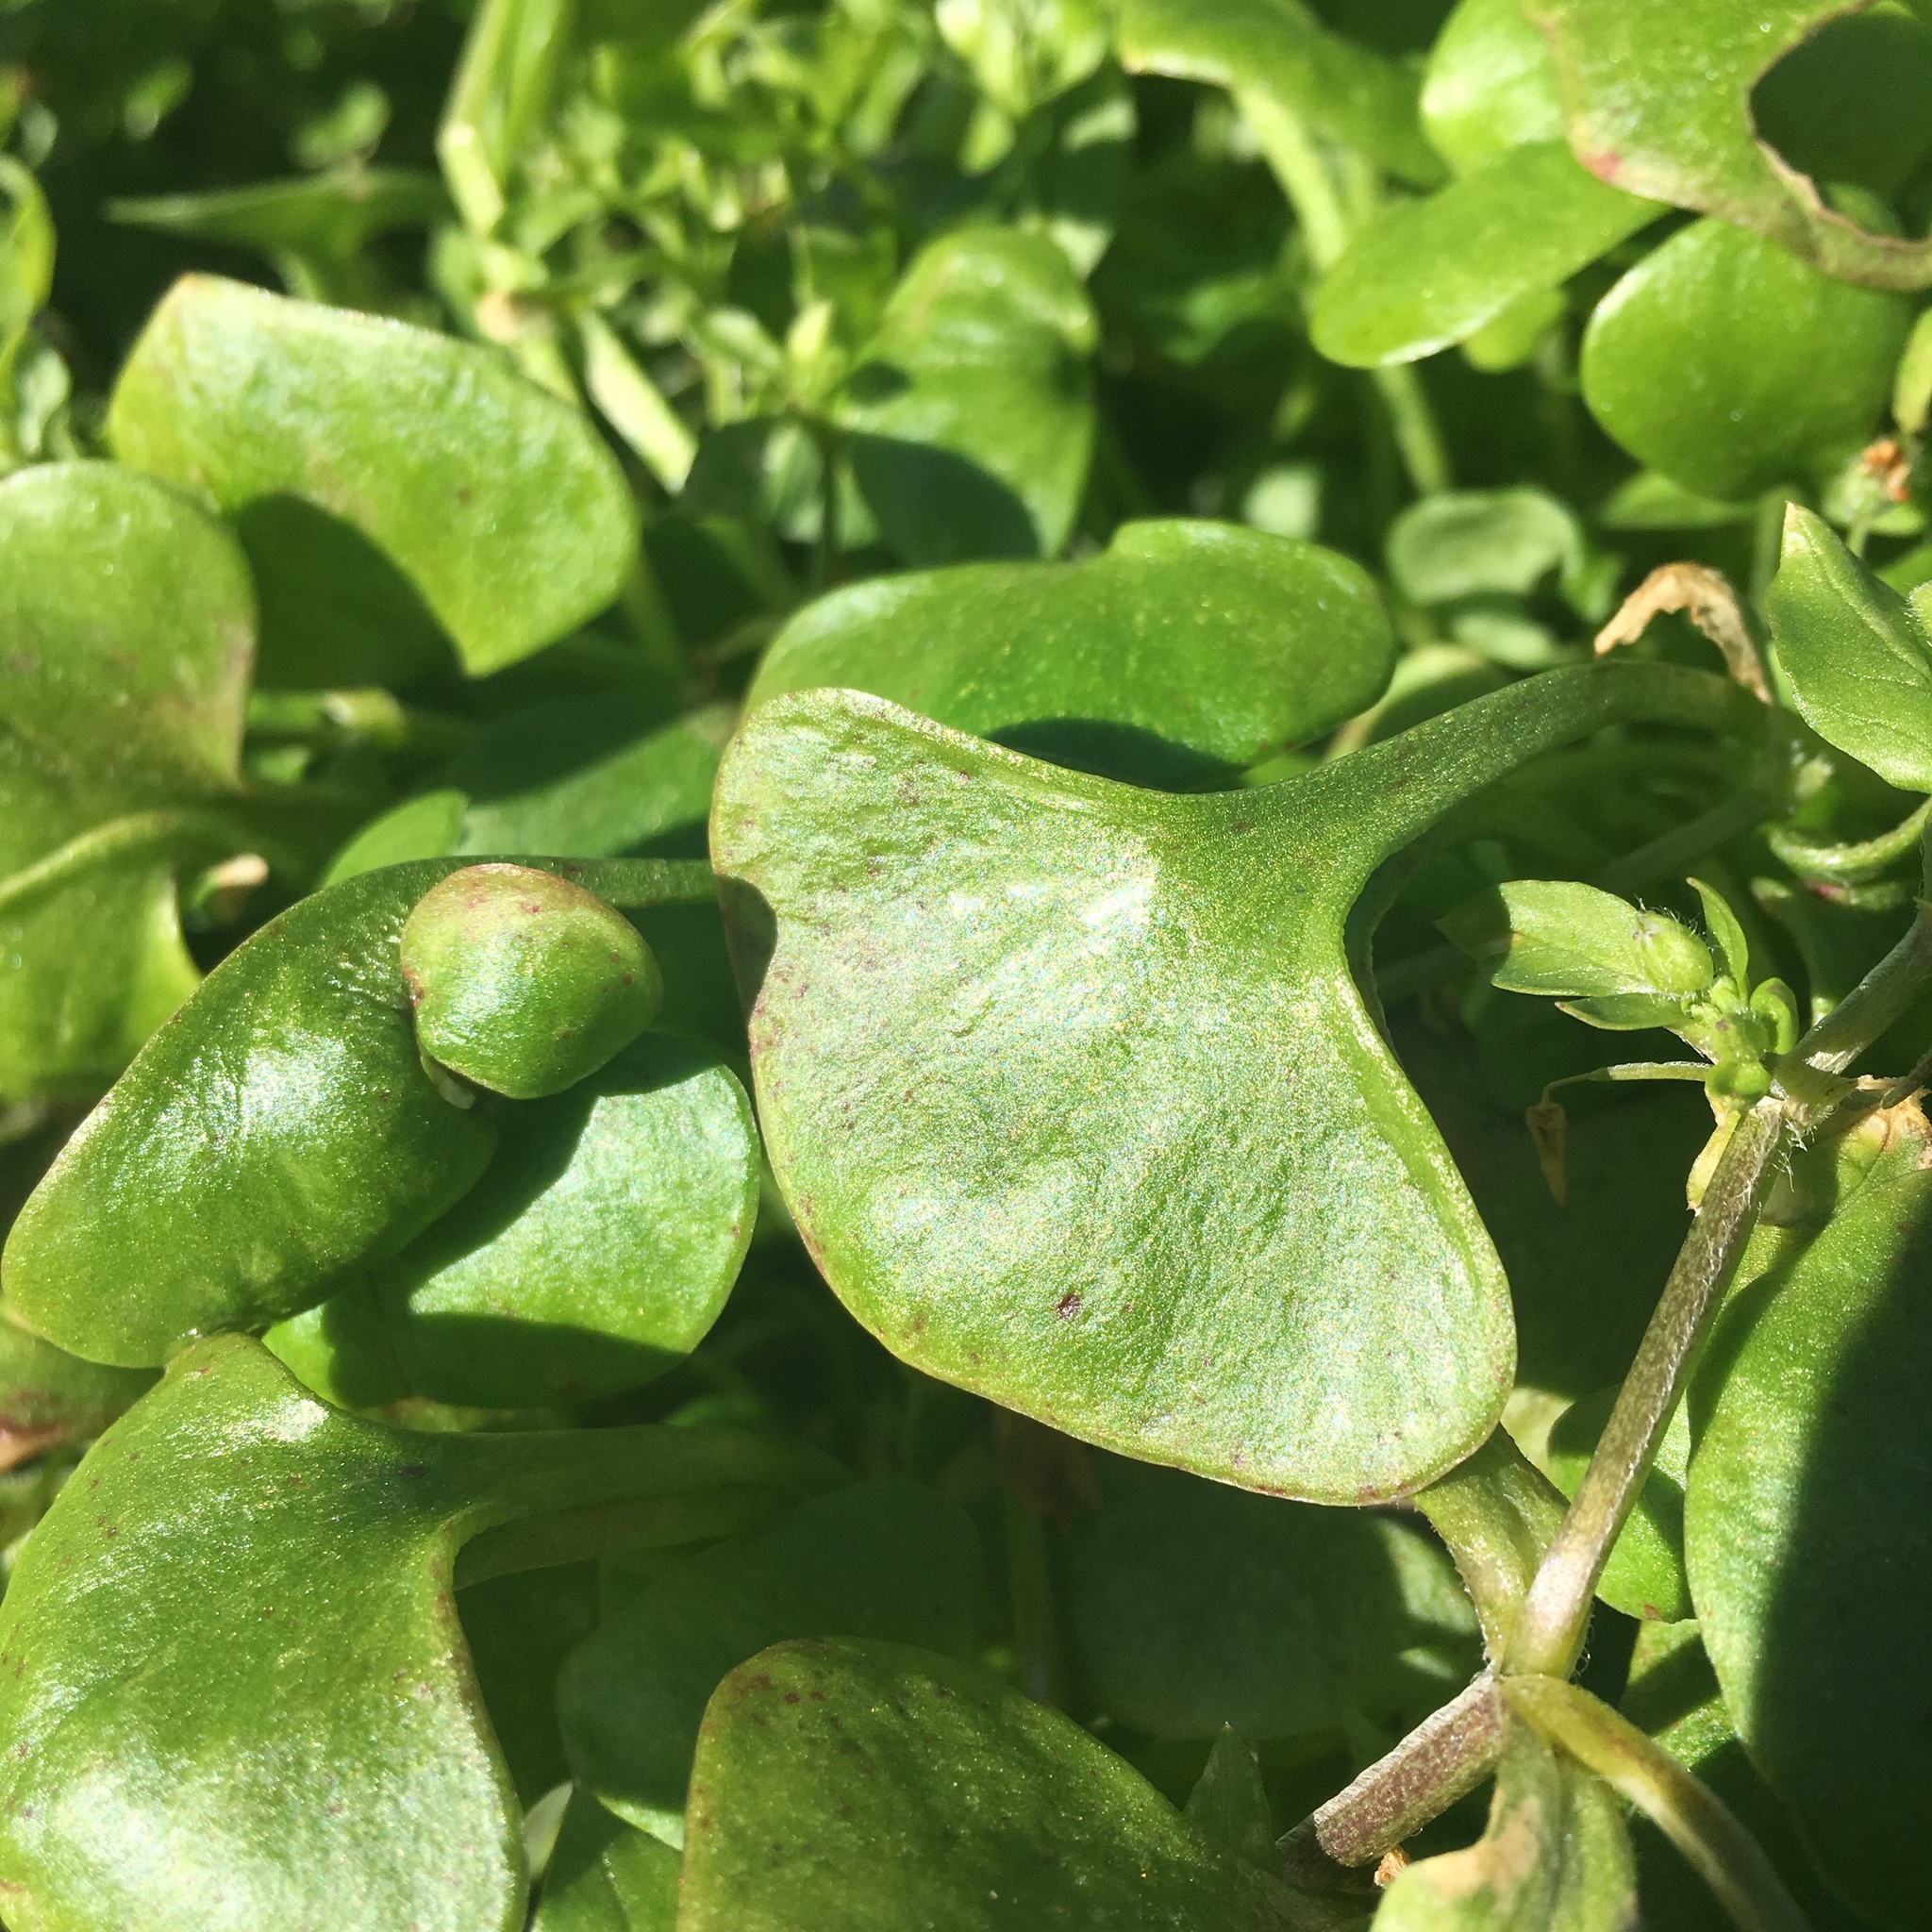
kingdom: Plantae
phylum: Tracheophyta
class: Magnoliopsida
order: Caryophyllales
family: Montiaceae
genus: Claytonia
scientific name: Claytonia perfoliata
